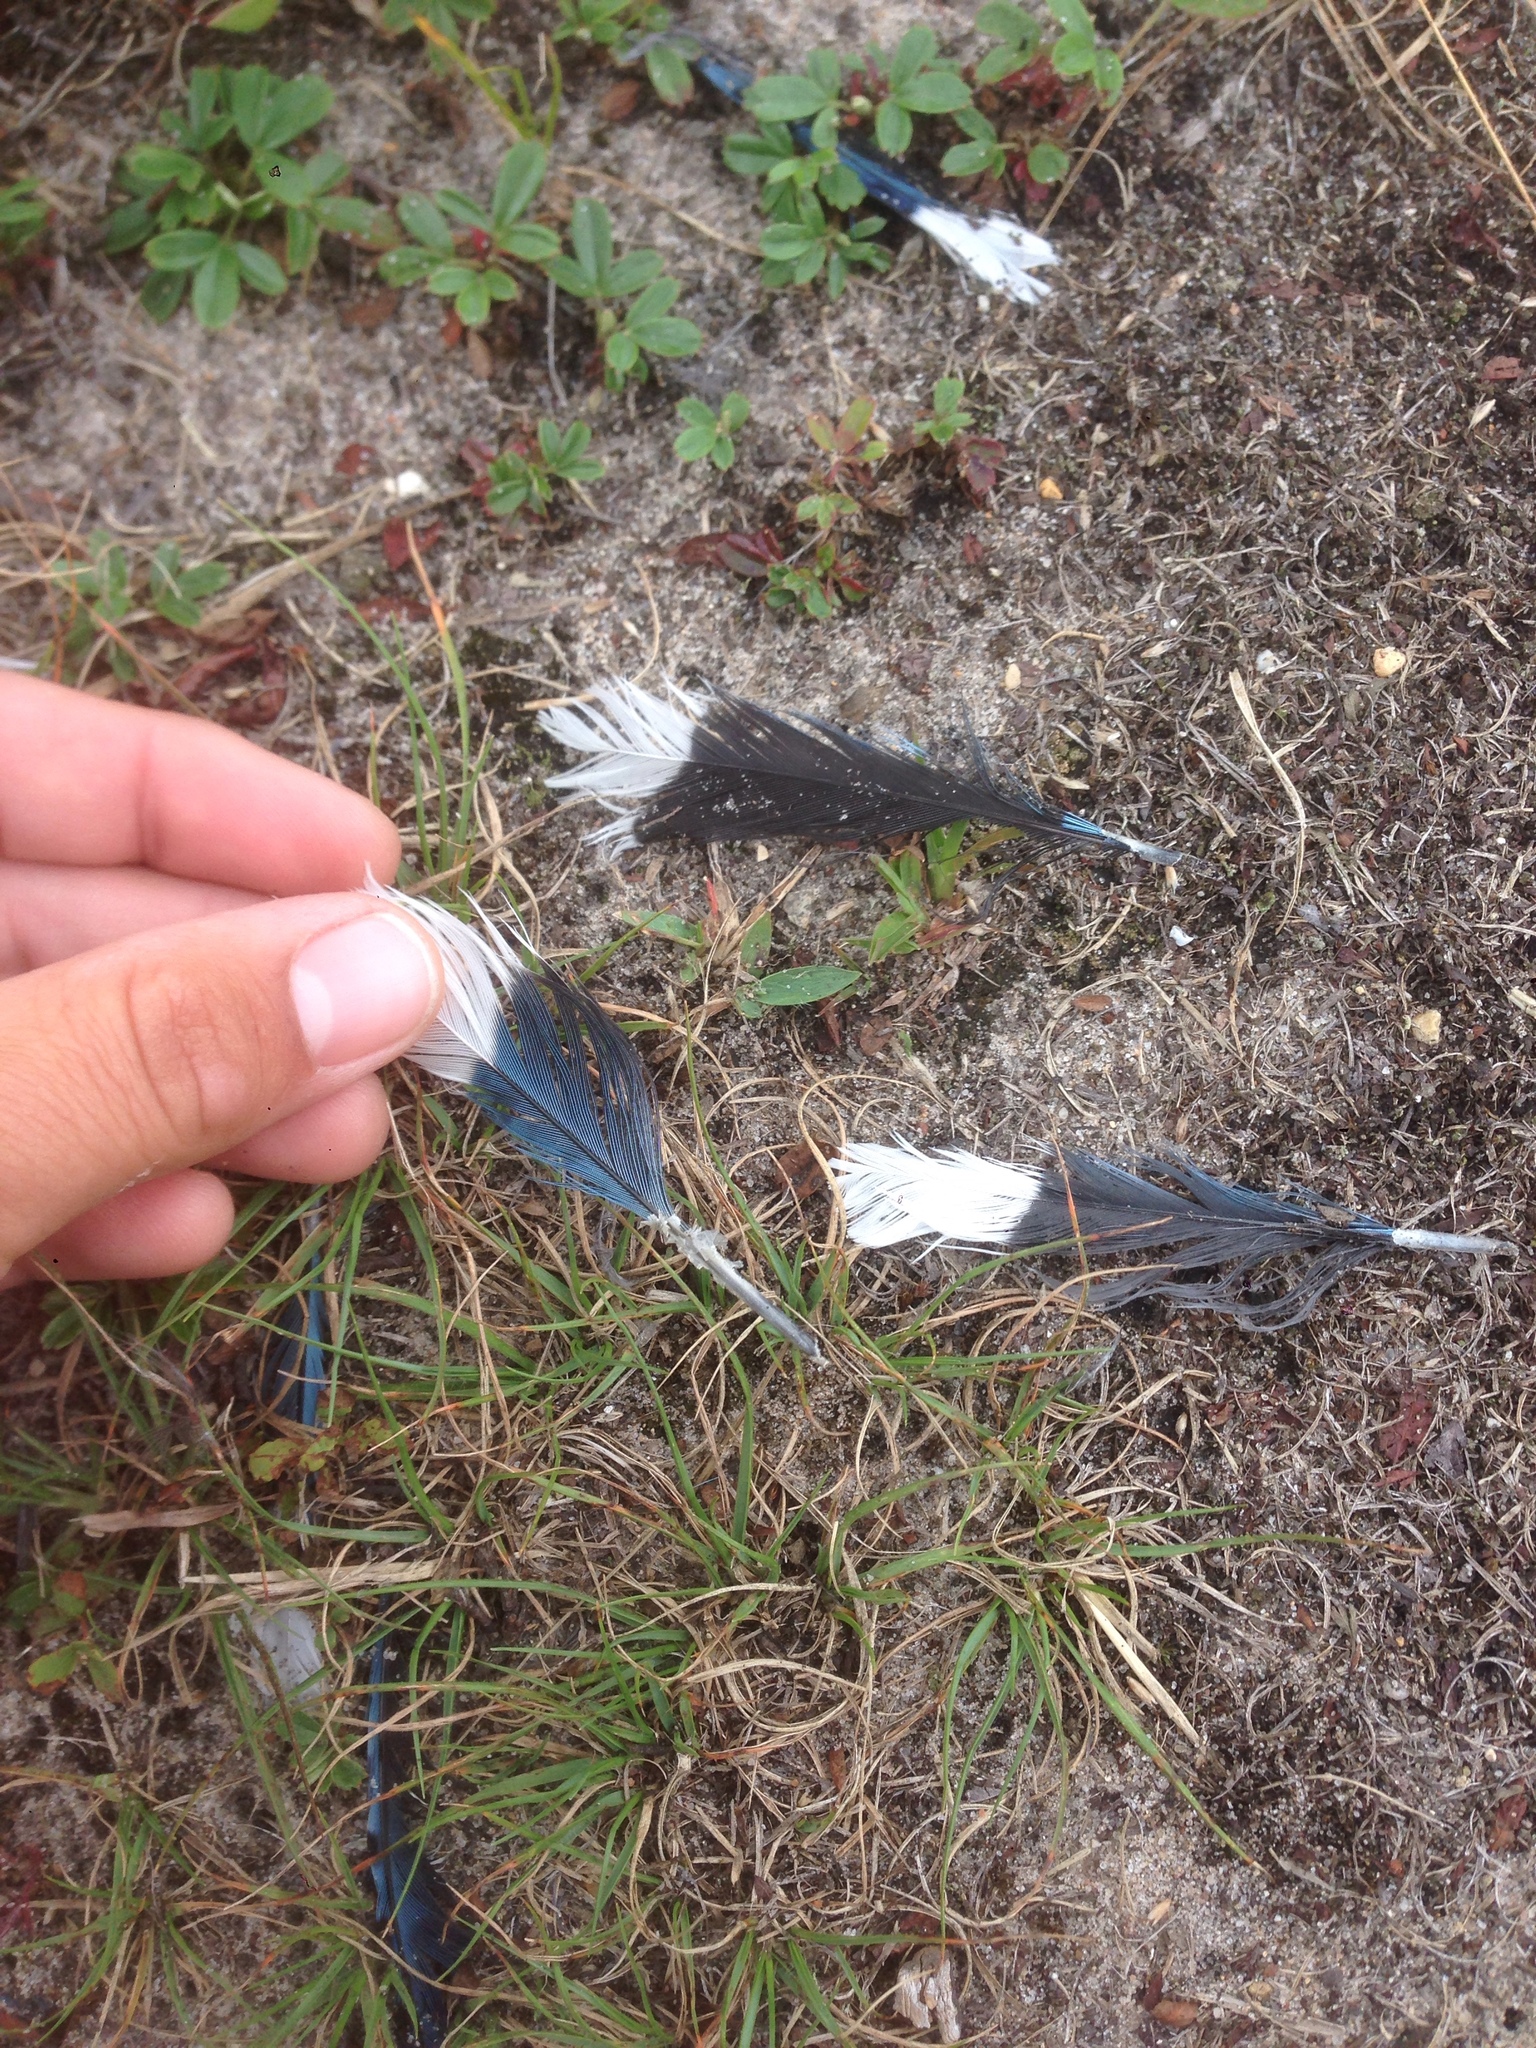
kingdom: Animalia
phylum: Chordata
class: Aves
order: Passeriformes
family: Corvidae
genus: Cyanocitta
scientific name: Cyanocitta cristata
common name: Blue jay
